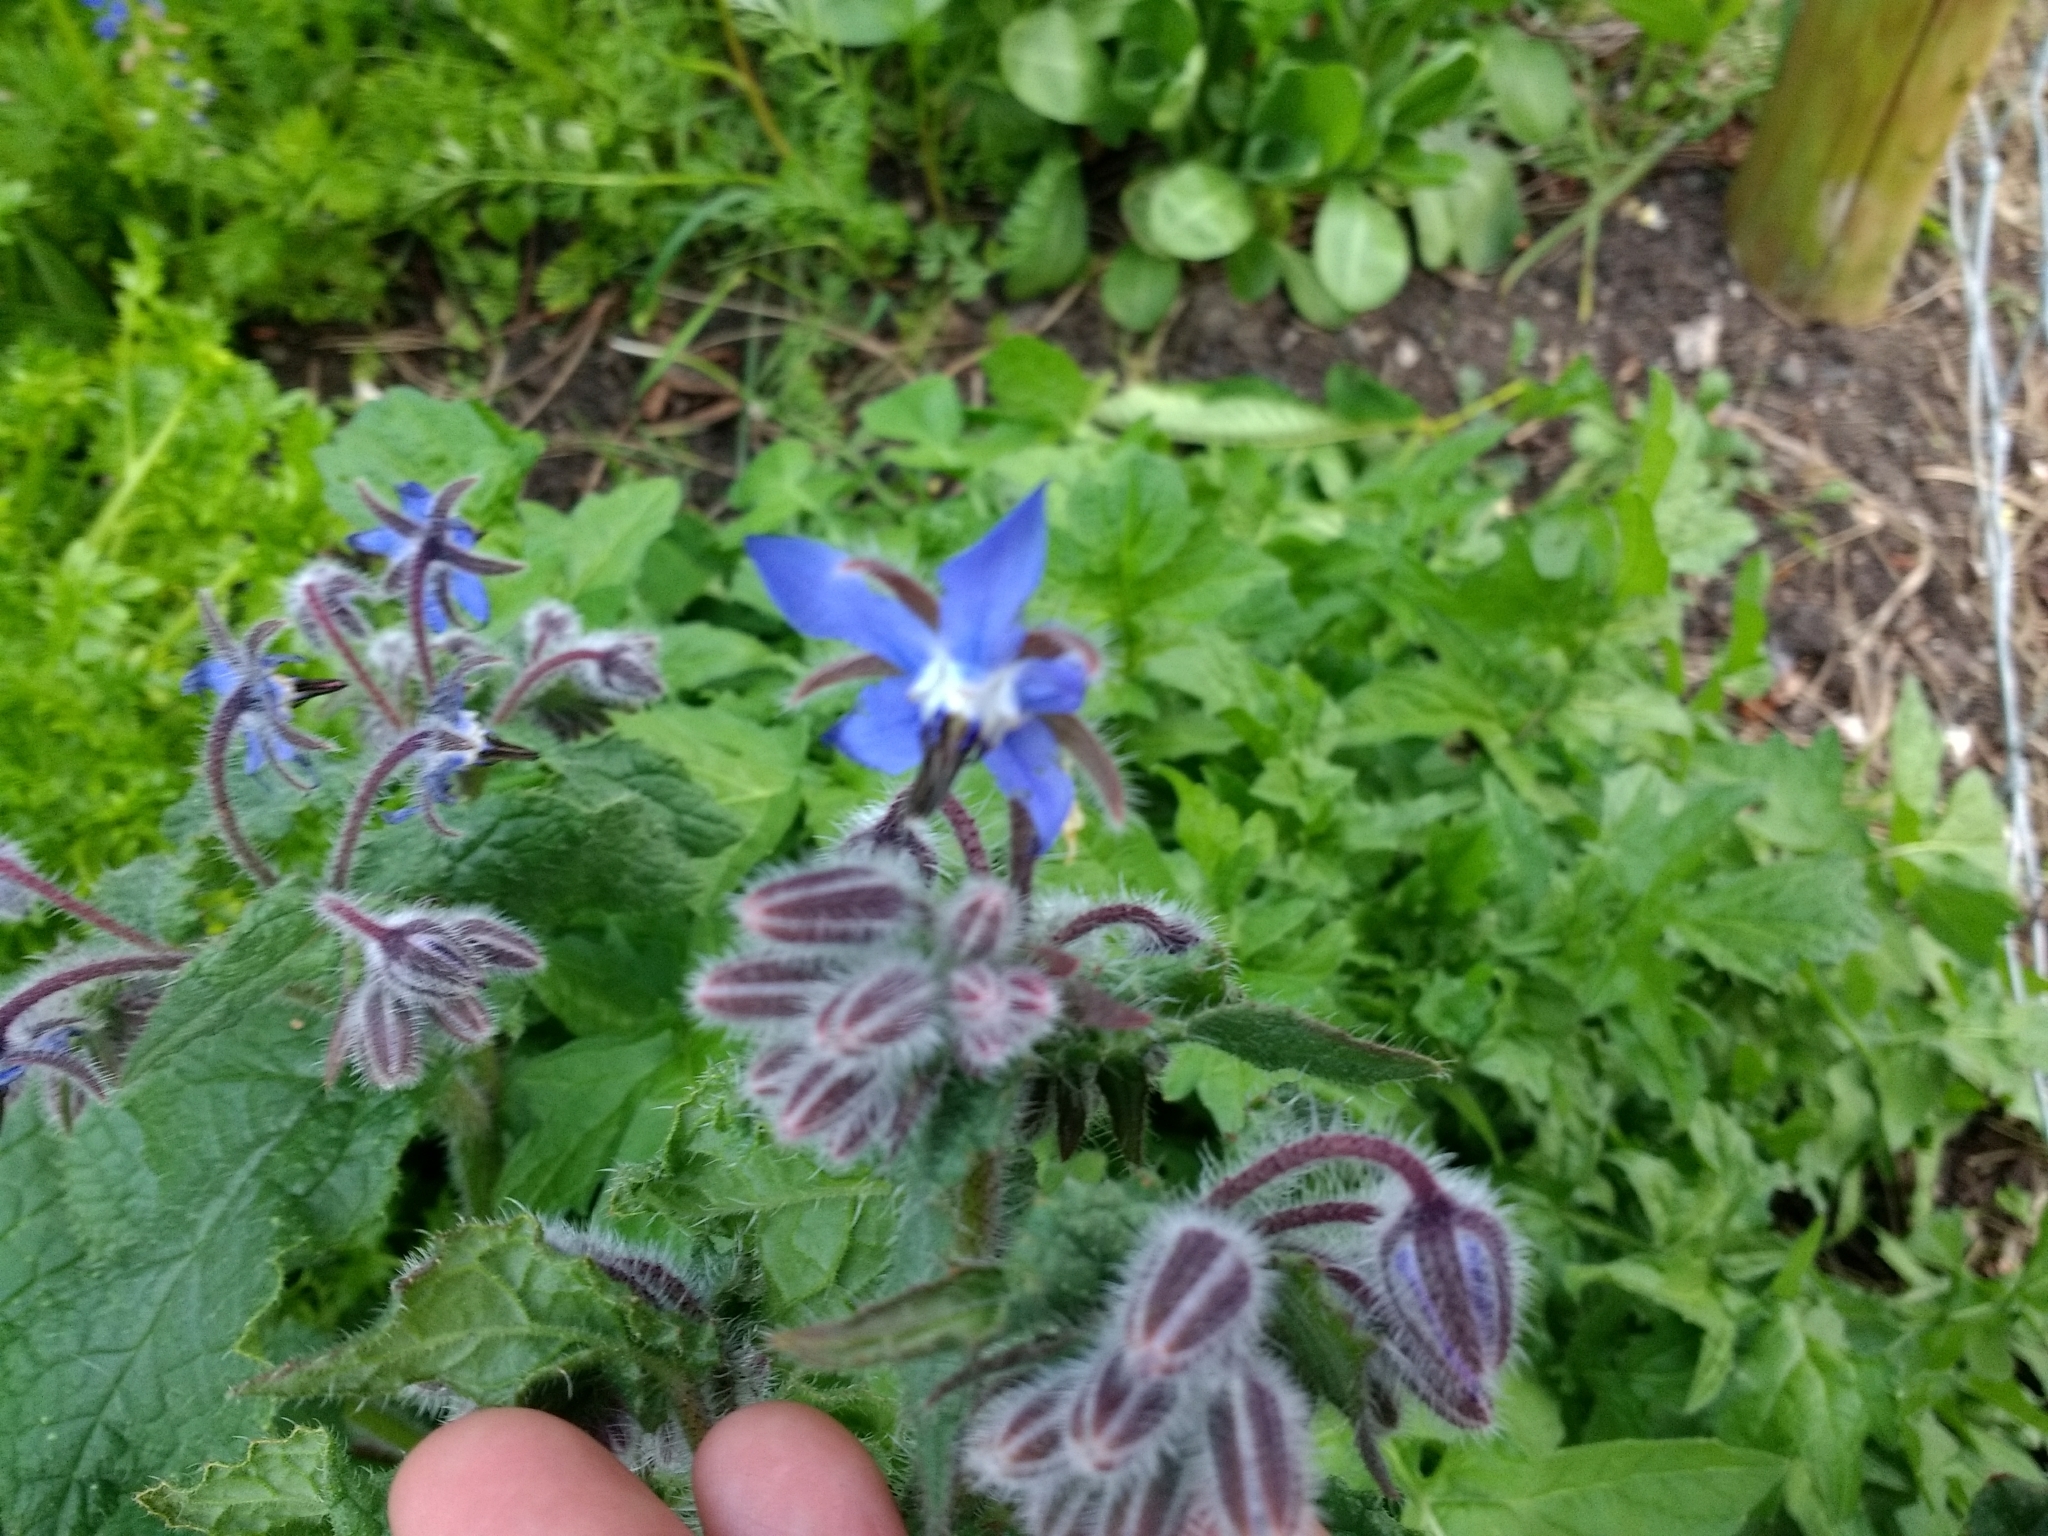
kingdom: Plantae
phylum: Tracheophyta
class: Magnoliopsida
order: Boraginales
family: Boraginaceae
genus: Borago
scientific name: Borago officinalis
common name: Borage
